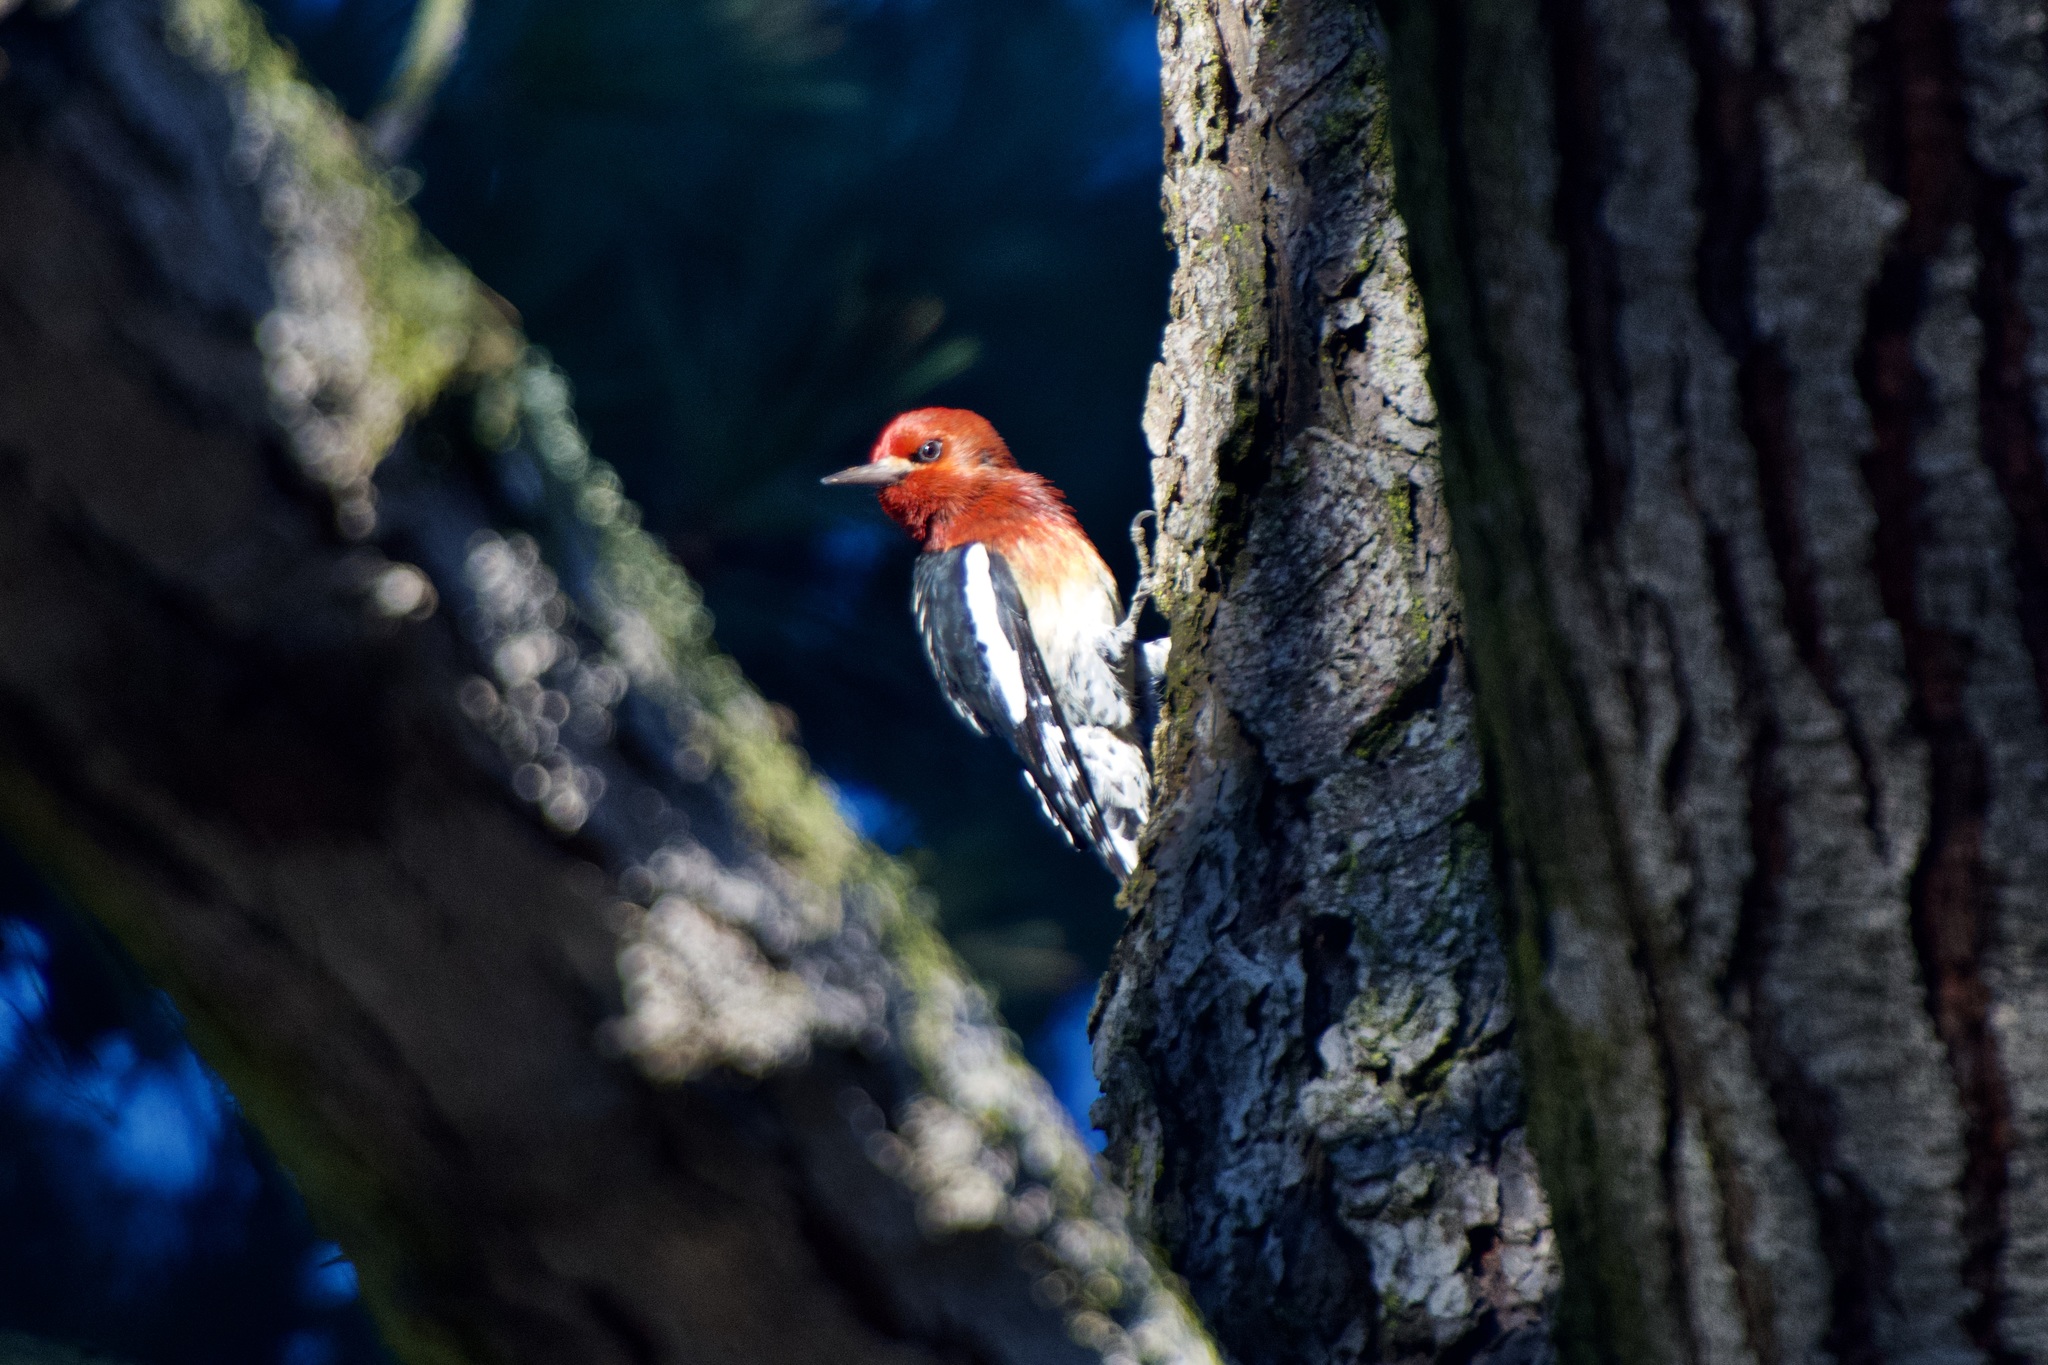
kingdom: Animalia
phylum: Chordata
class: Aves
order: Piciformes
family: Picidae
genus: Sphyrapicus
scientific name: Sphyrapicus ruber
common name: Red-breasted sapsucker
